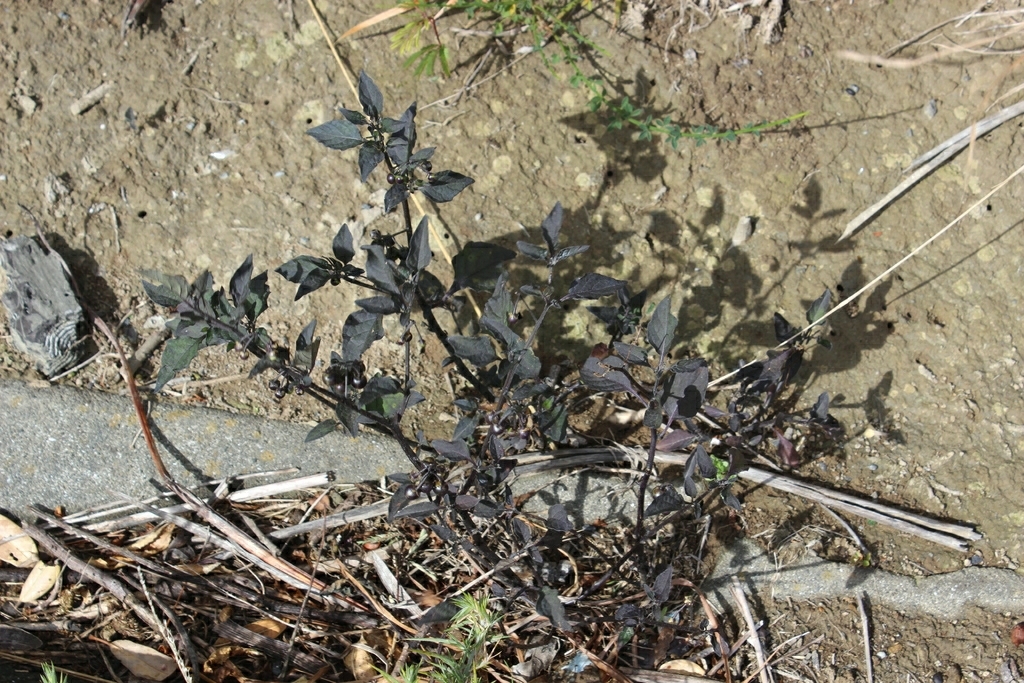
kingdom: Plantae
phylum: Tracheophyta
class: Magnoliopsida
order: Solanales
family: Solanaceae
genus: Solanum
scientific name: Solanum nigrum
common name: Black nightshade
